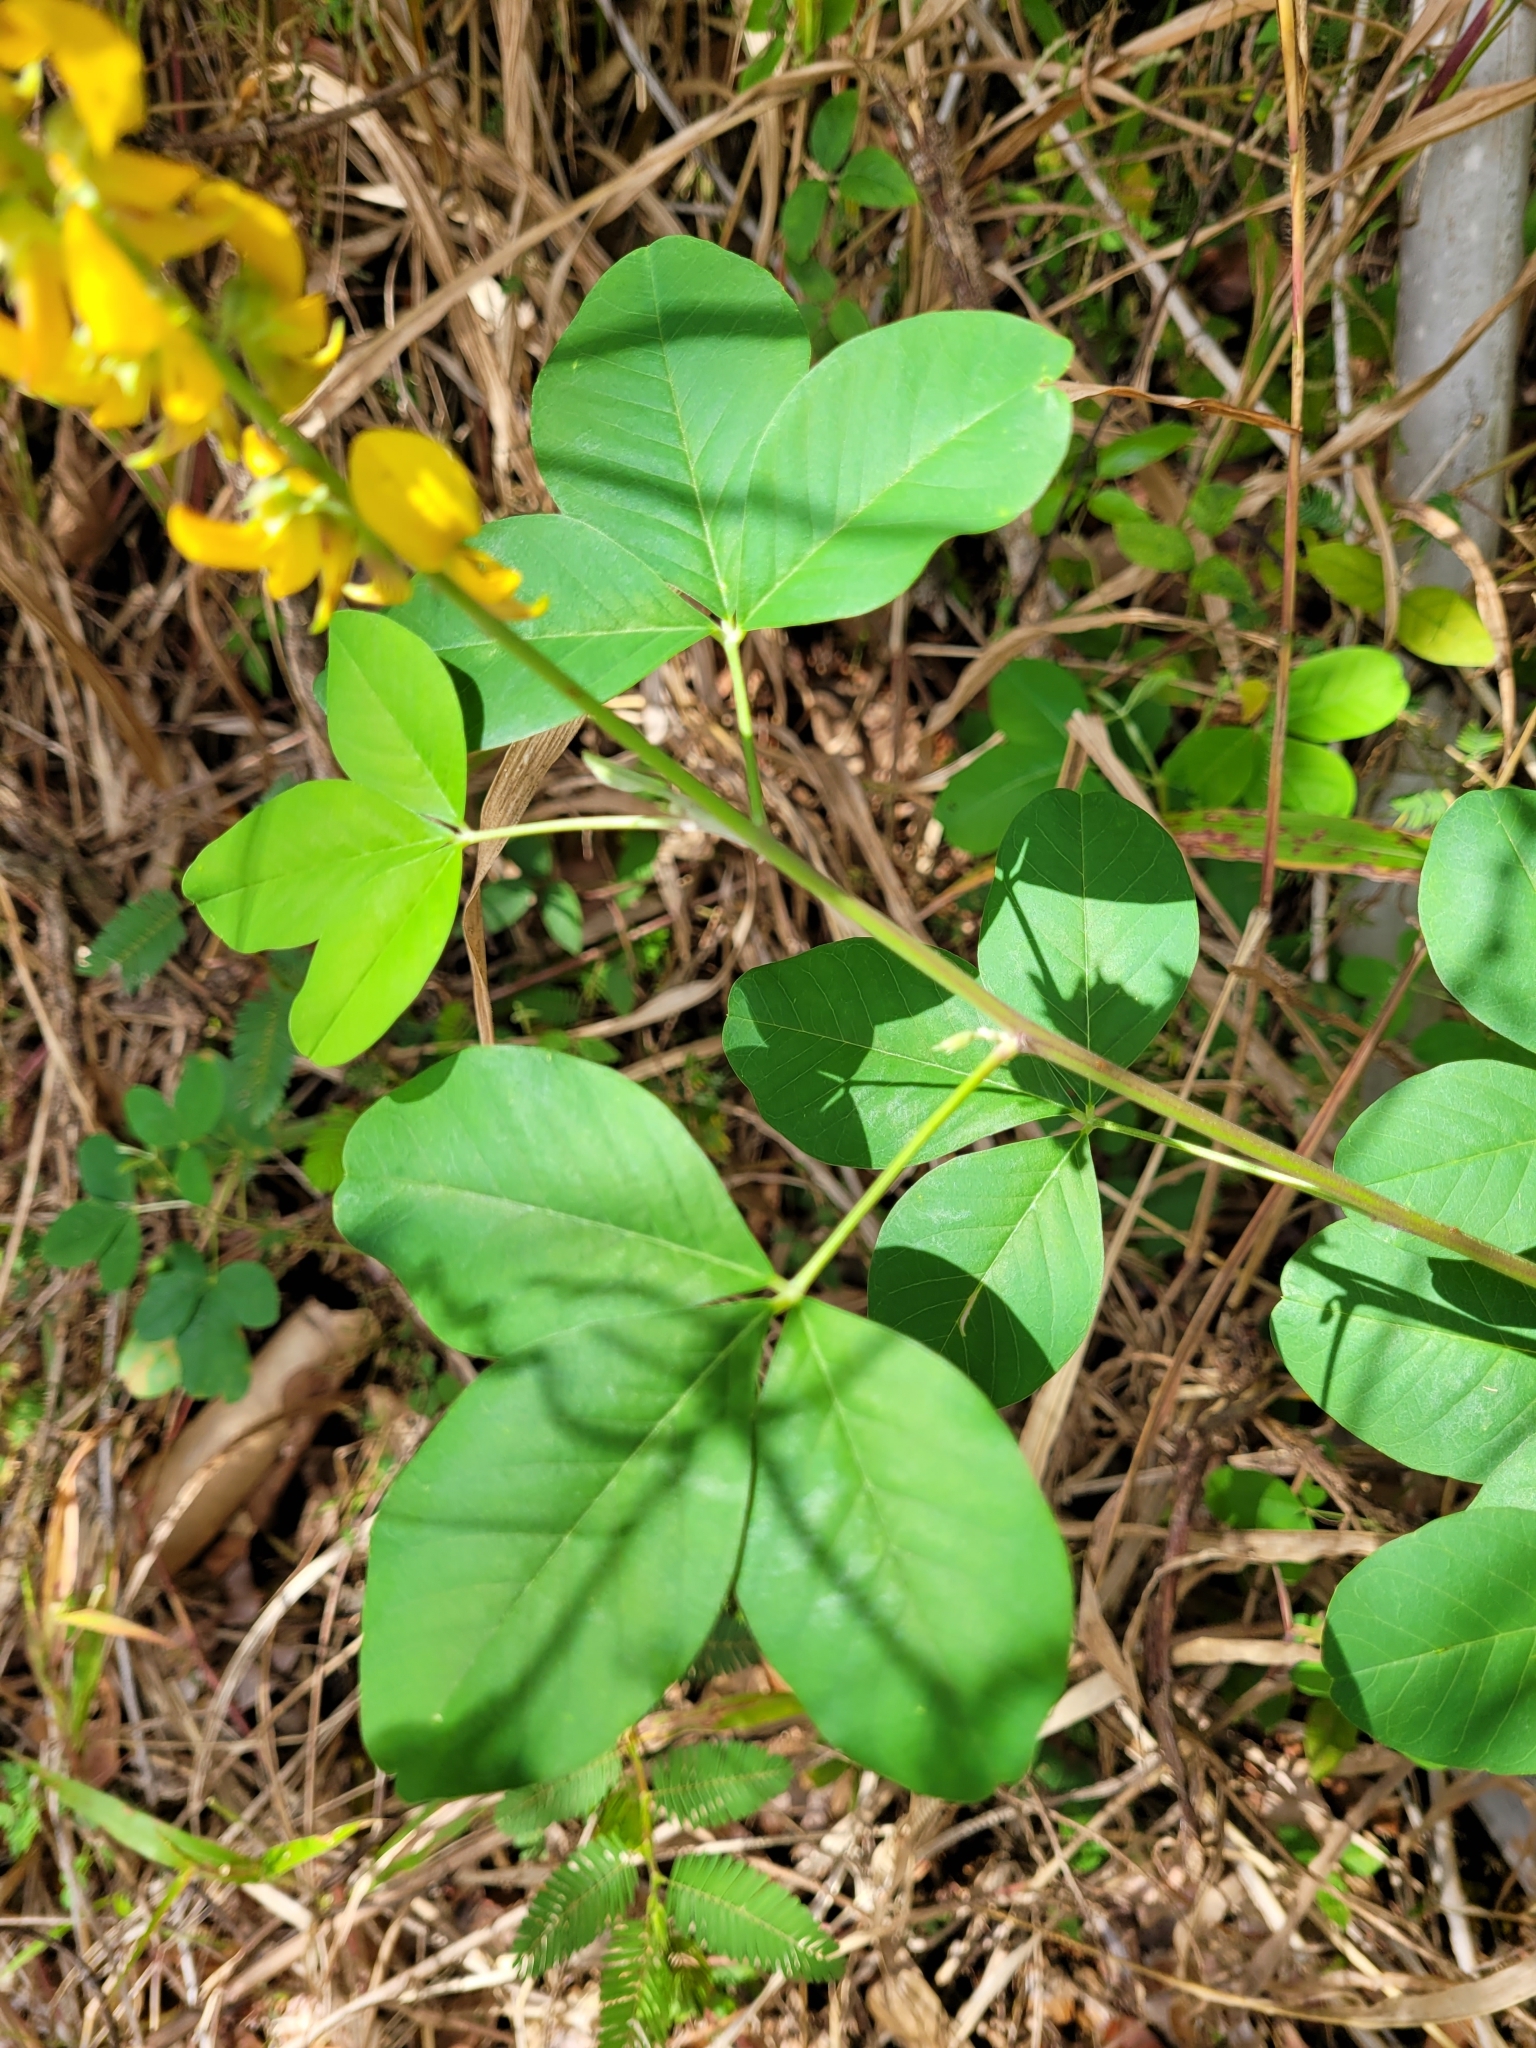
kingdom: Plantae
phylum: Tracheophyta
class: Magnoliopsida
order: Fabales
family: Fabaceae
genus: Crotalaria
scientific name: Crotalaria pallida
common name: Smooth rattlebox
